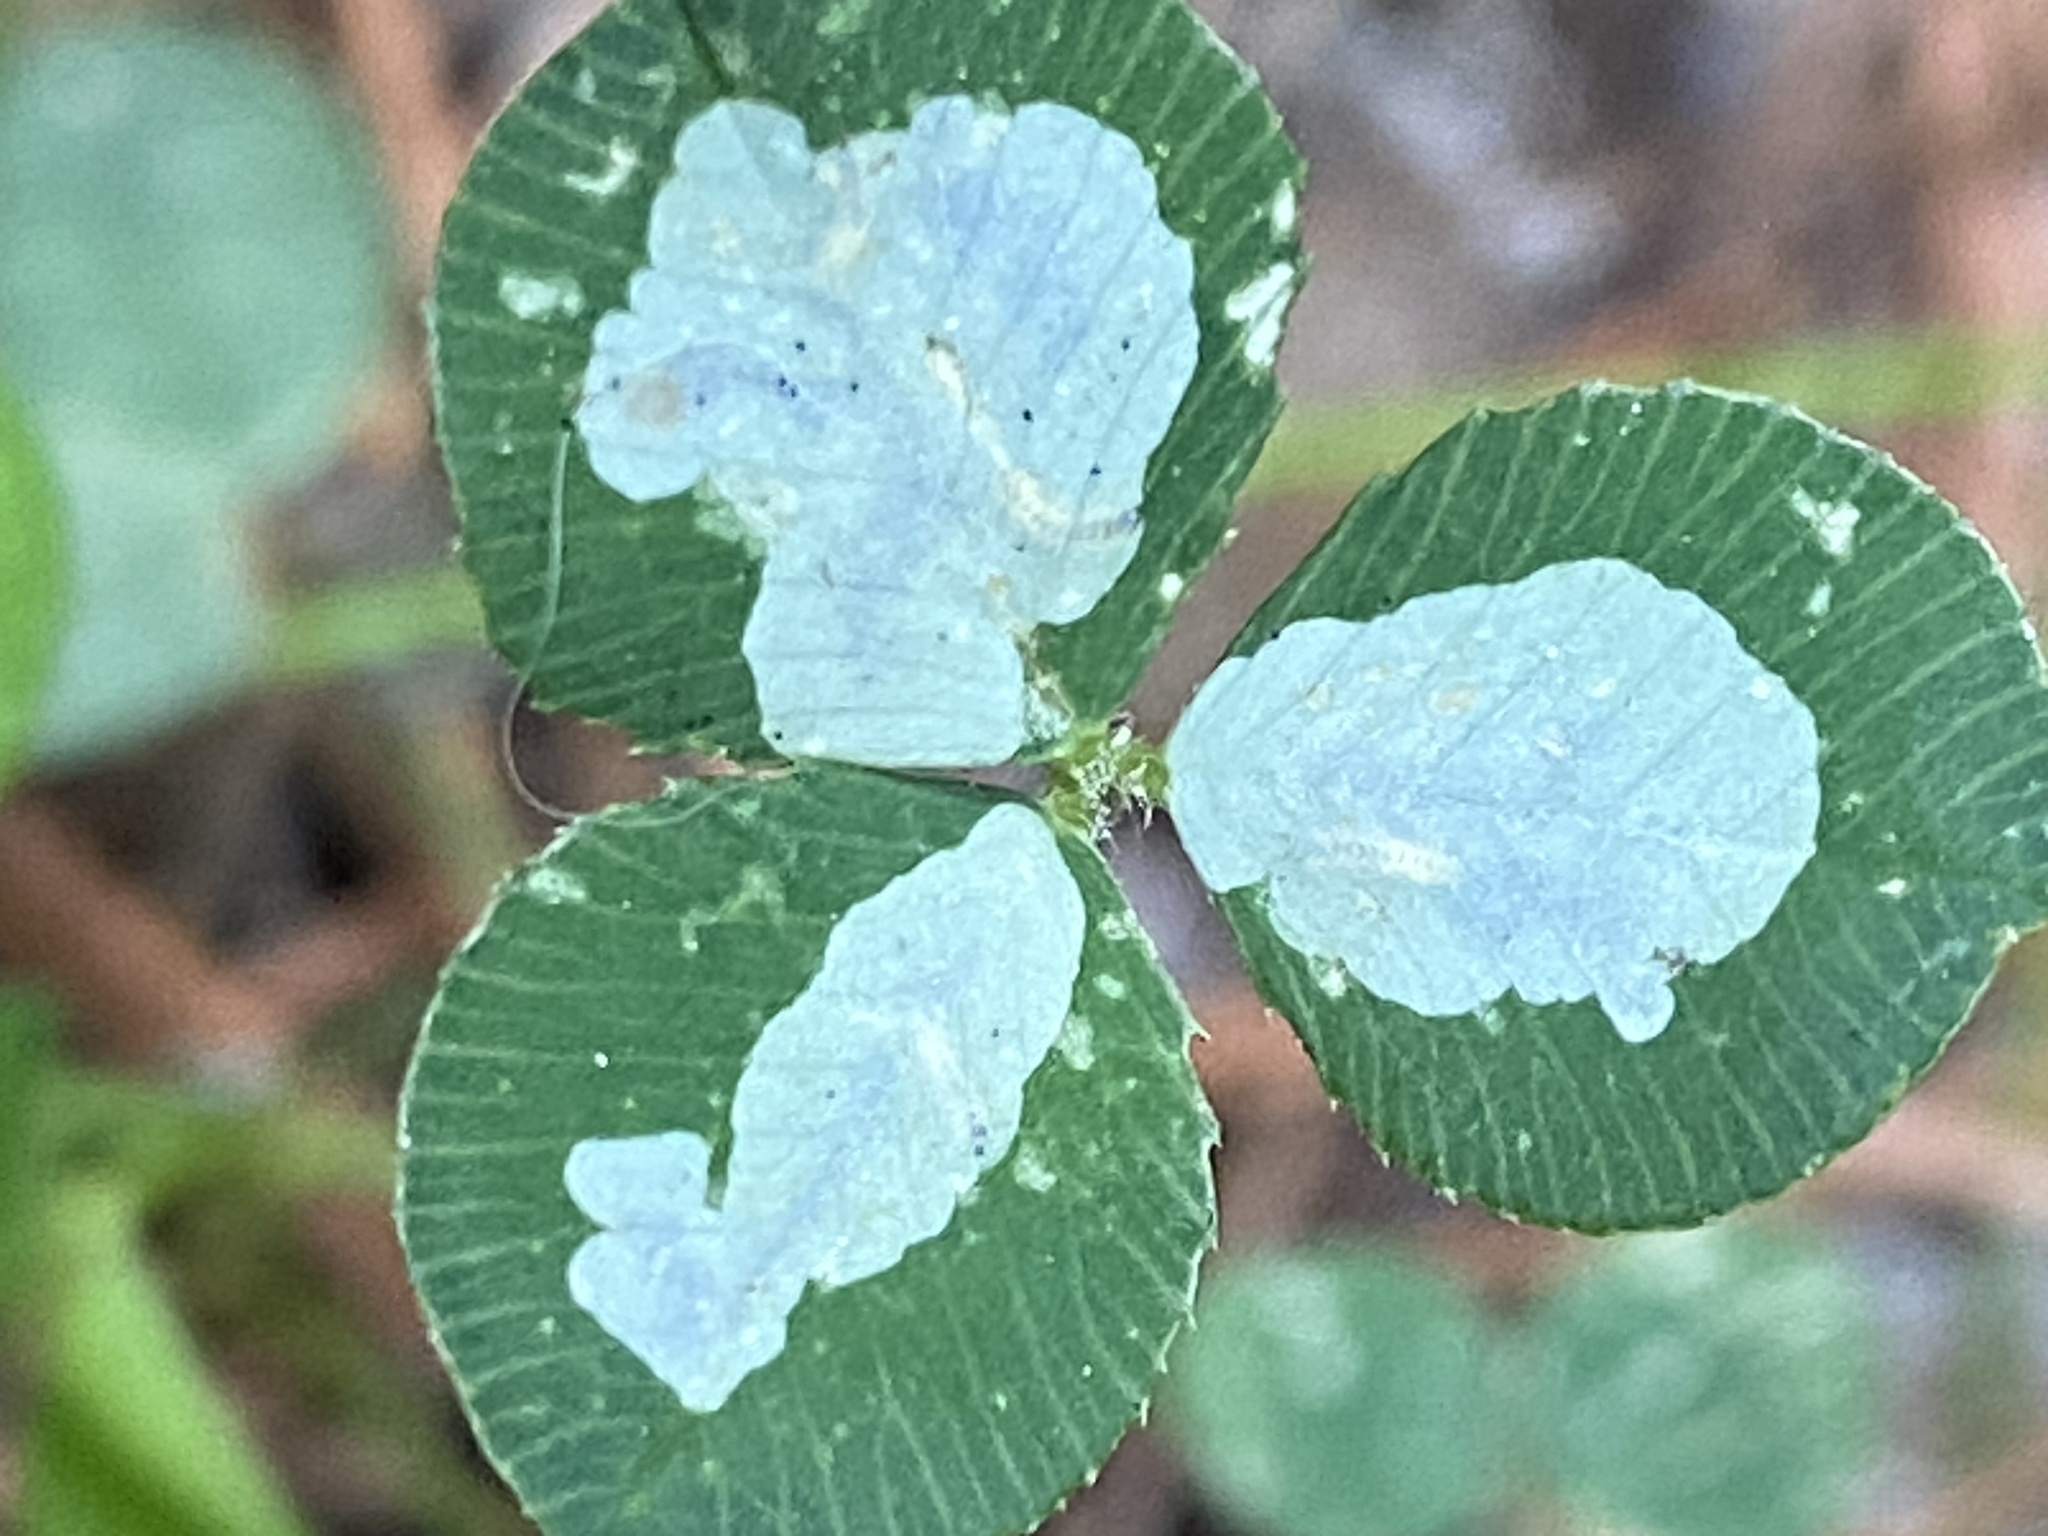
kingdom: Animalia
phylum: Arthropoda
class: Insecta
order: Lepidoptera
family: Gracillariidae
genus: Porphyrosela
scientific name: Porphyrosela minuta
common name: Leaf miner moth
